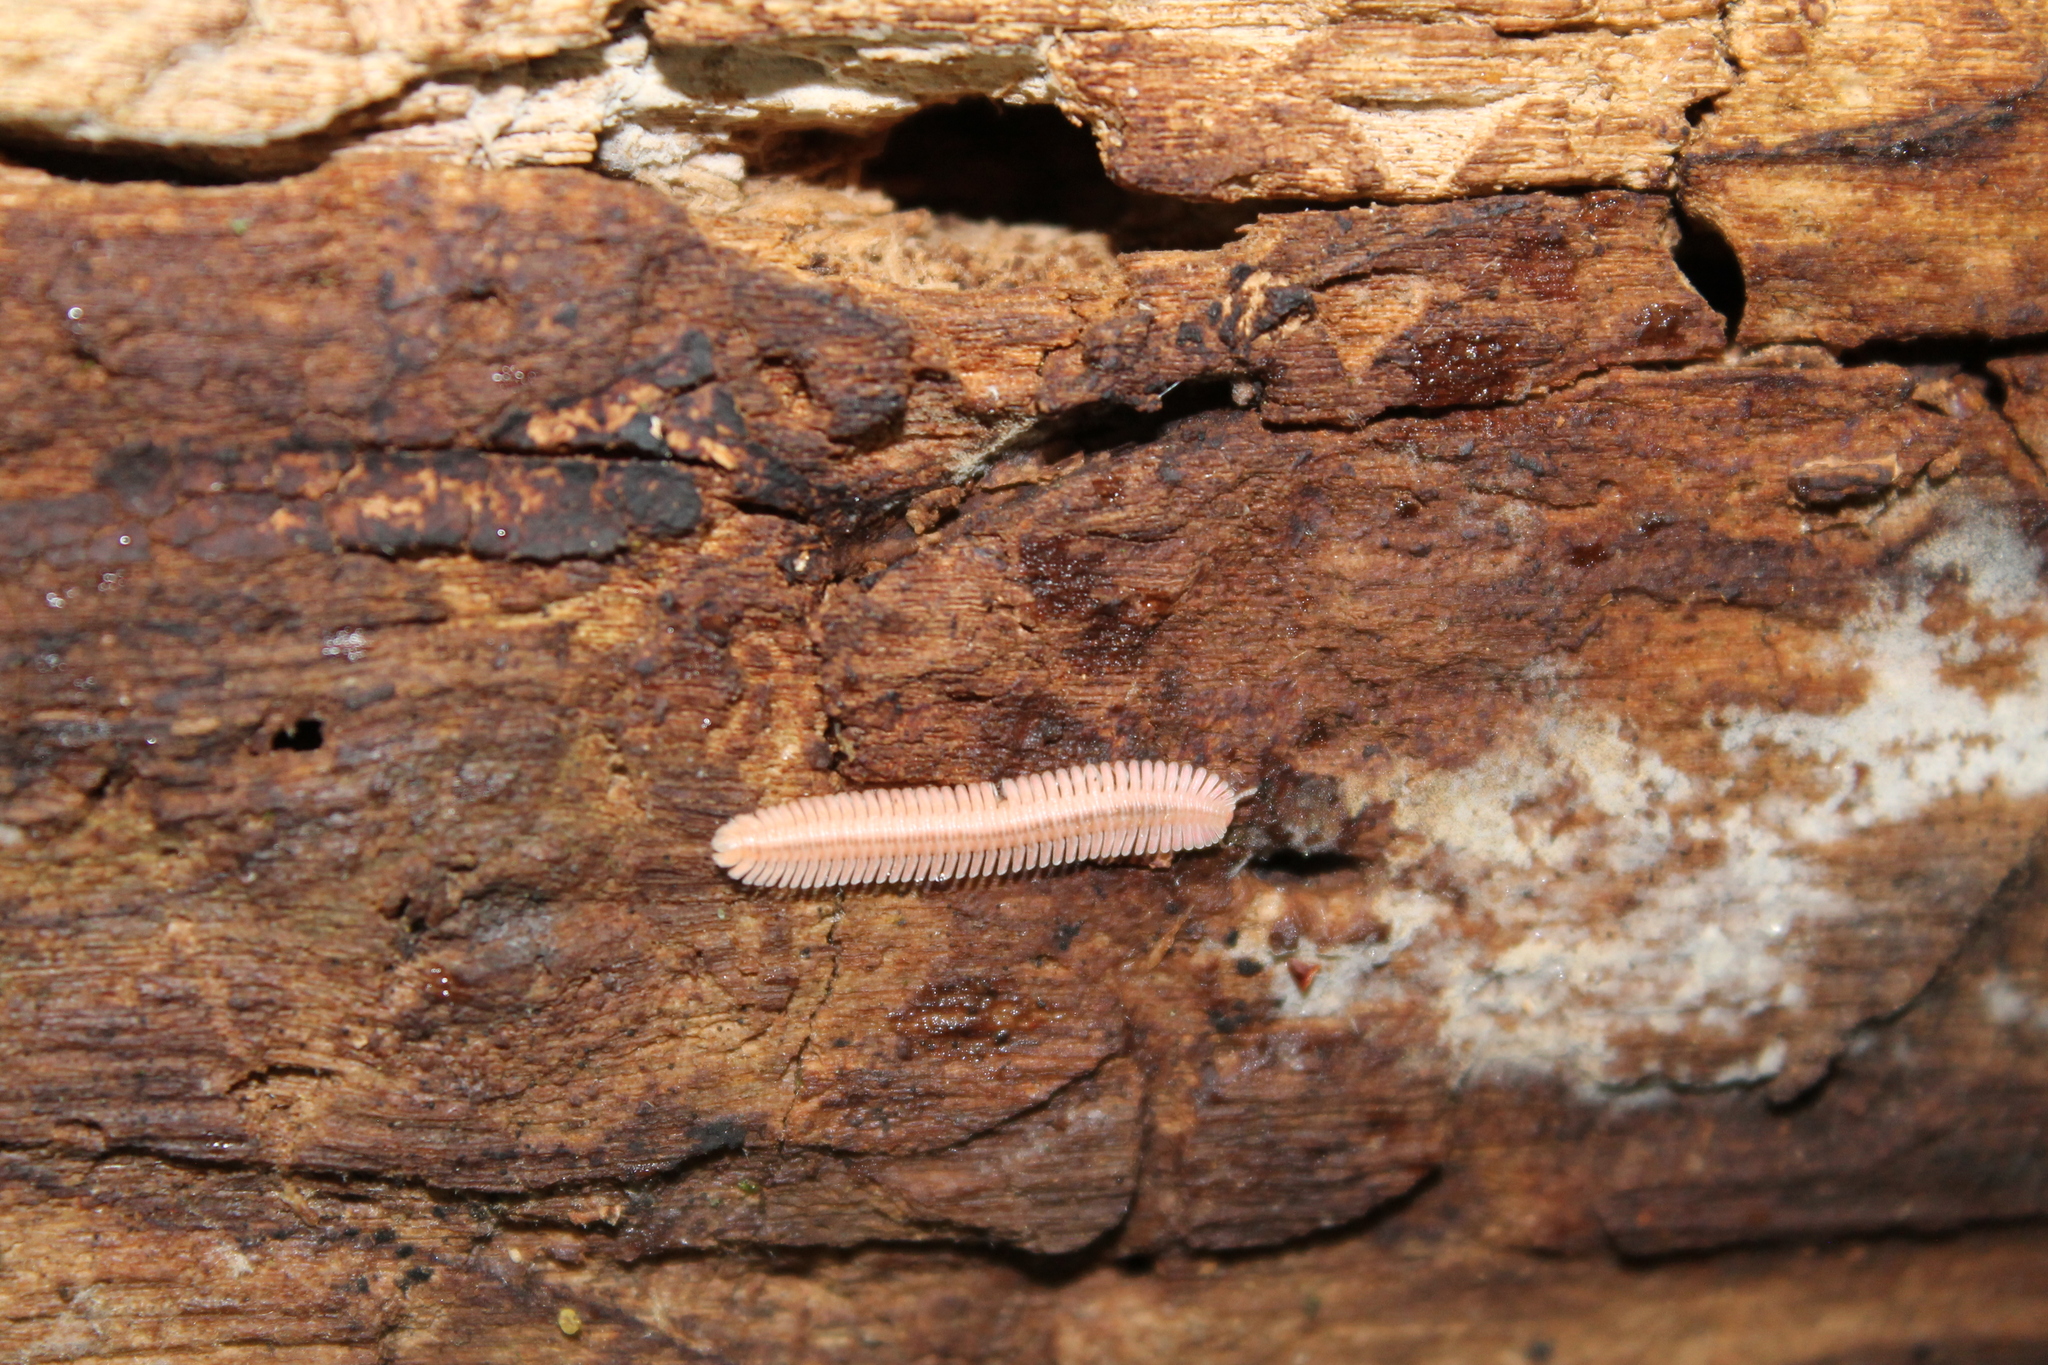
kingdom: Animalia
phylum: Arthropoda
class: Diplopoda
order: Platydesmida
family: Andrognathidae
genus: Brachycybe
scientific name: Brachycybe lecontii
